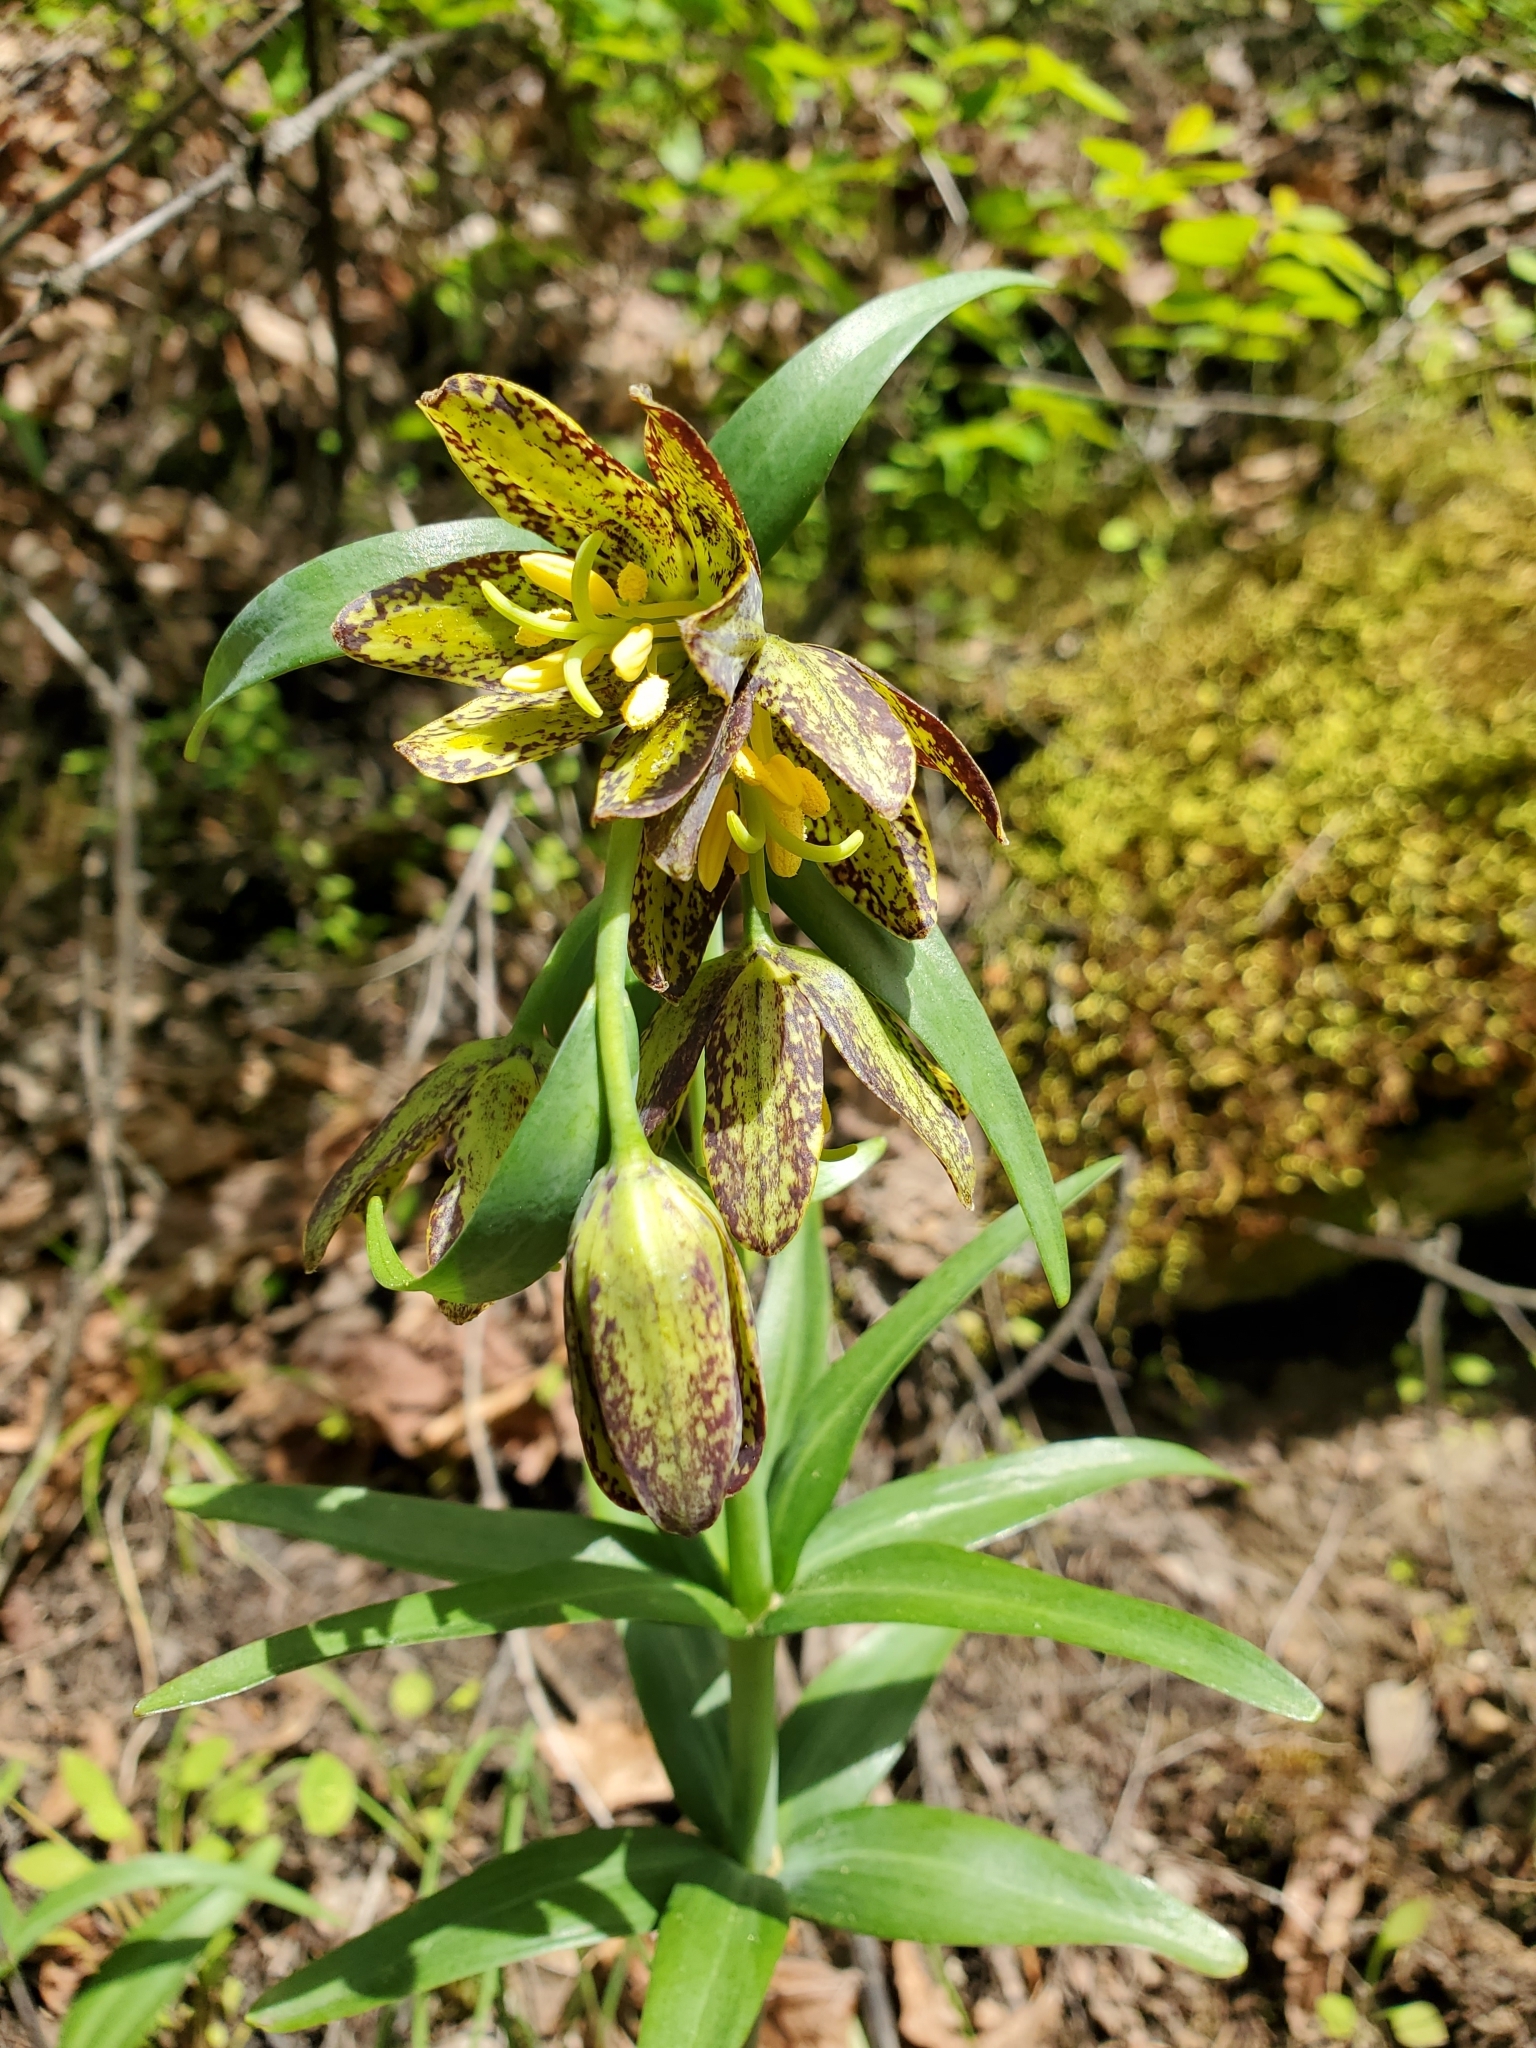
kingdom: Plantae
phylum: Tracheophyta
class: Liliopsida
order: Liliales
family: Liliaceae
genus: Fritillaria
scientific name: Fritillaria affinis
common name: Ojai fritillary
